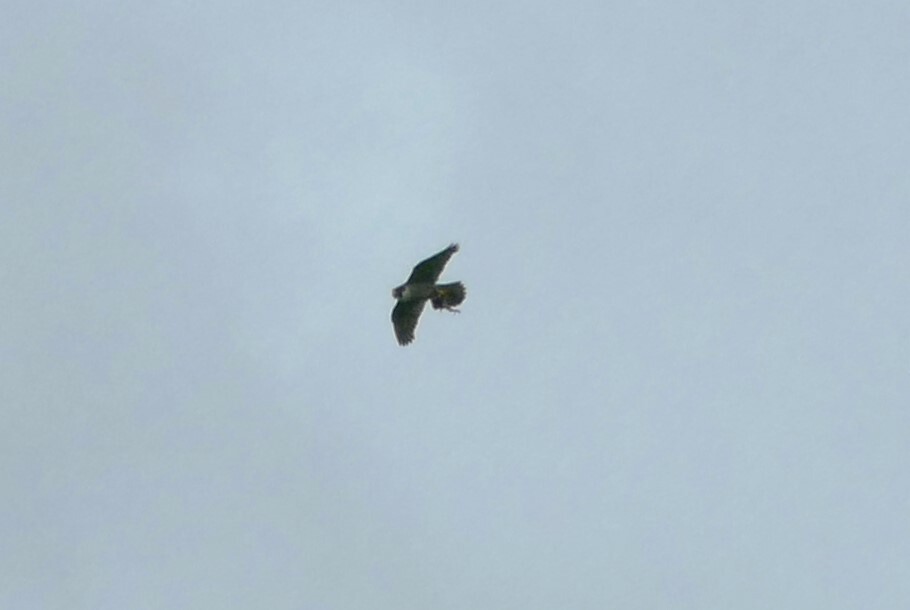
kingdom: Animalia
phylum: Chordata
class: Aves
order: Falconiformes
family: Falconidae
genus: Falco
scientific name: Falco peregrinus
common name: Peregrine falcon
